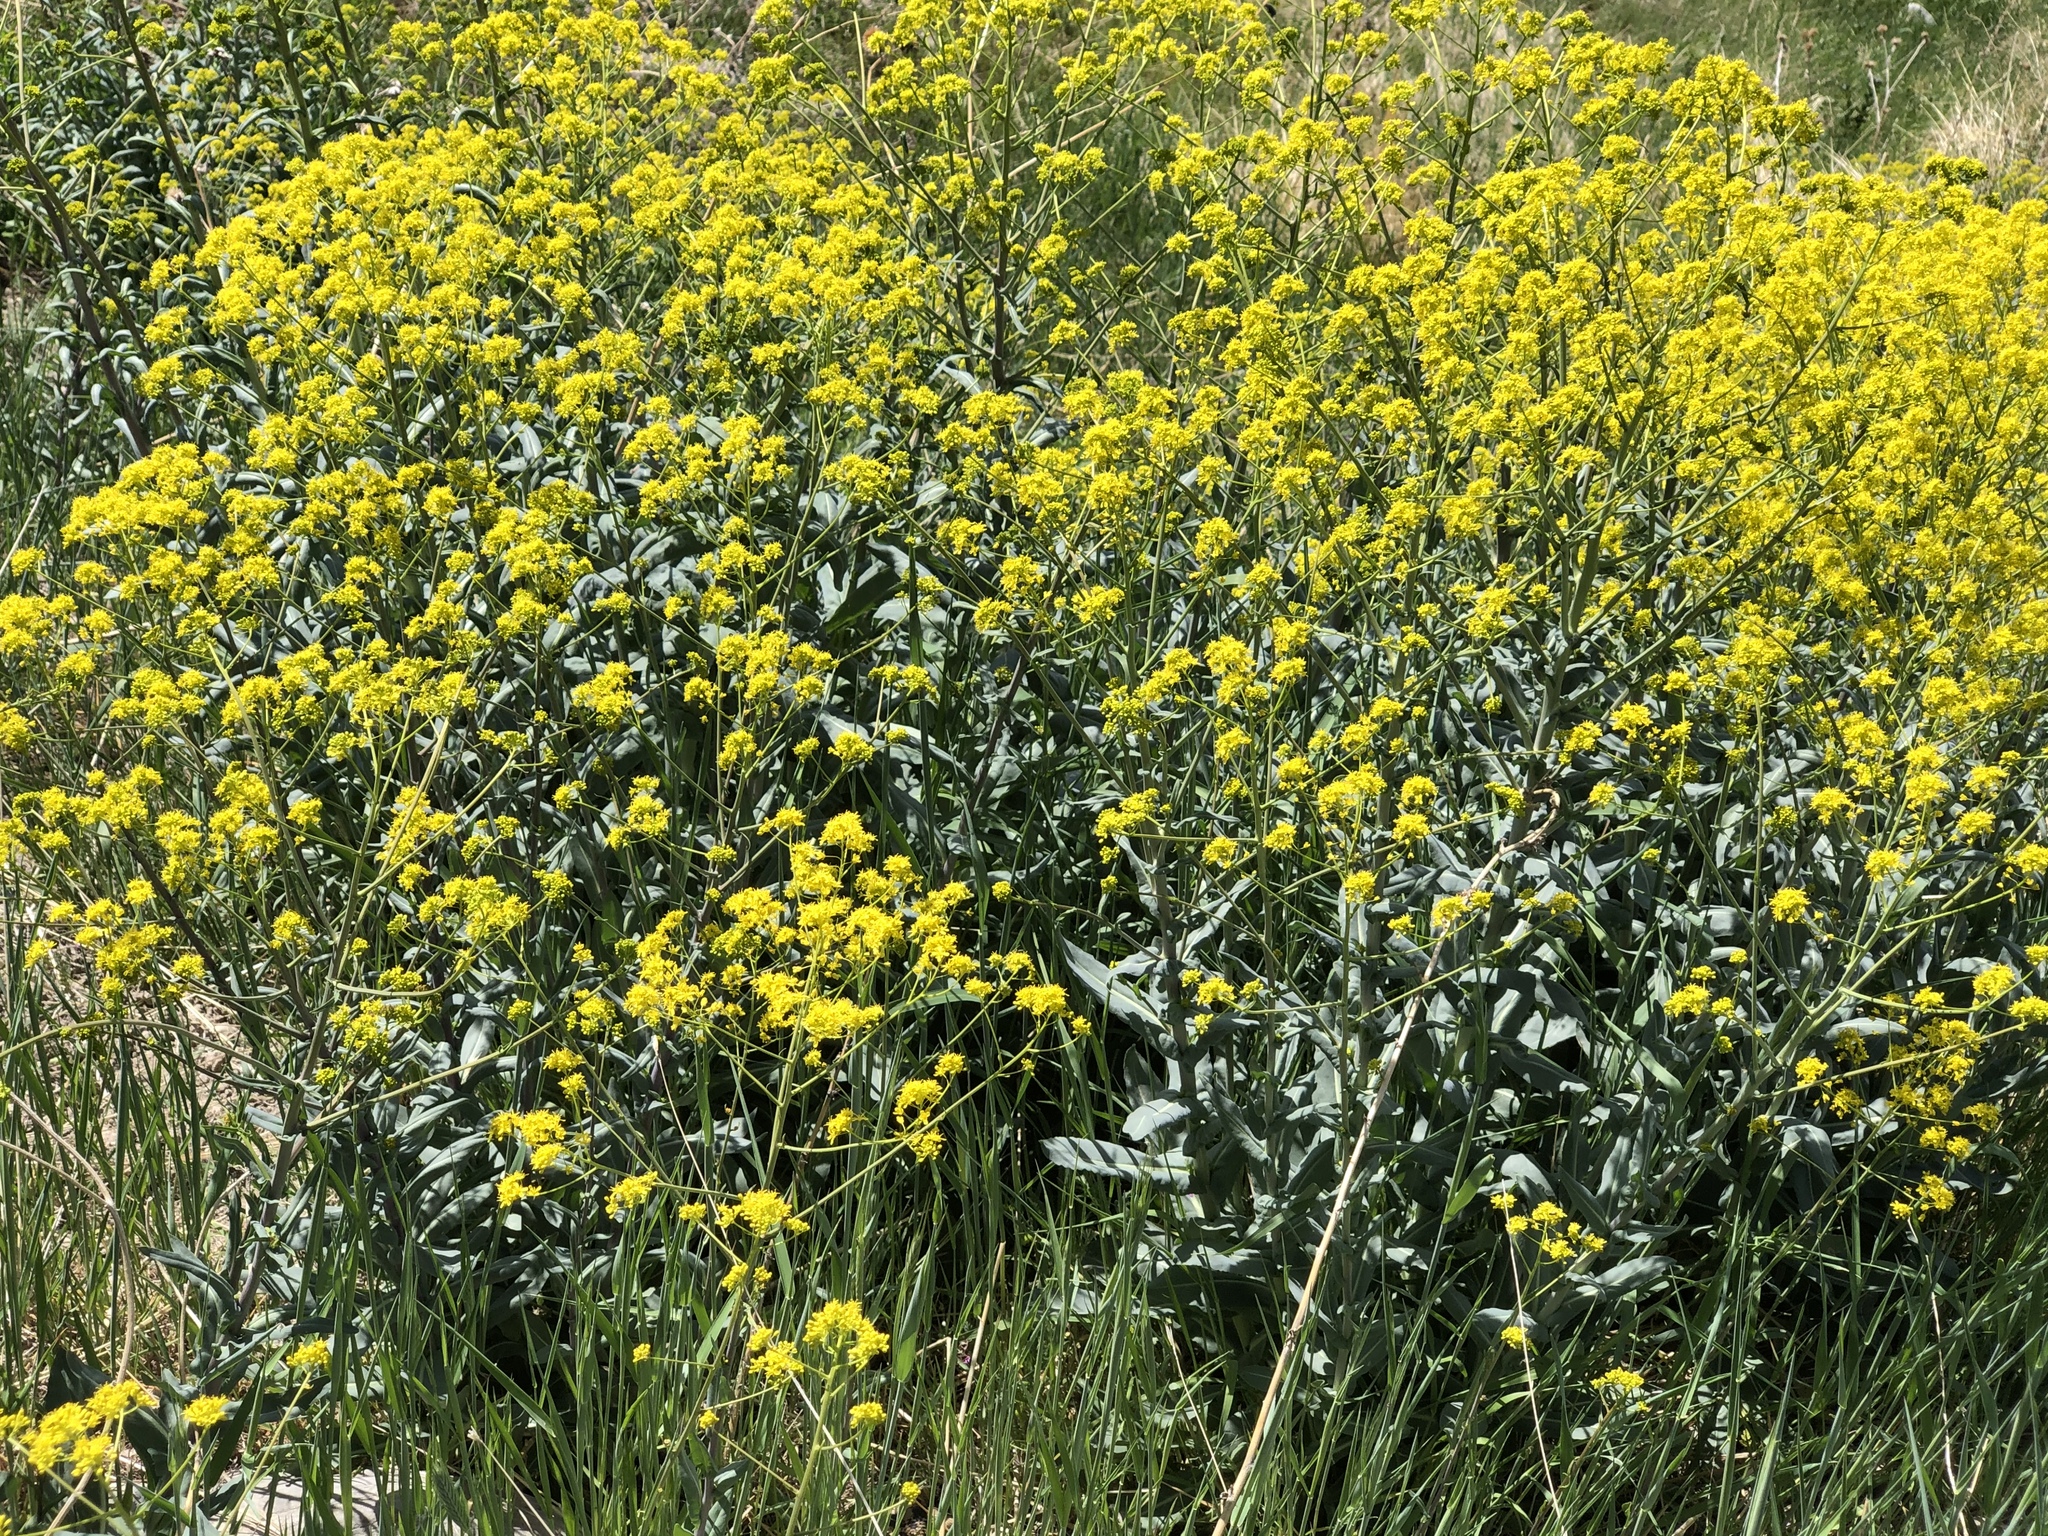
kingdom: Plantae
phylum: Tracheophyta
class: Magnoliopsida
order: Brassicales
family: Brassicaceae
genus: Isatis
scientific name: Isatis tinctoria
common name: Woad
